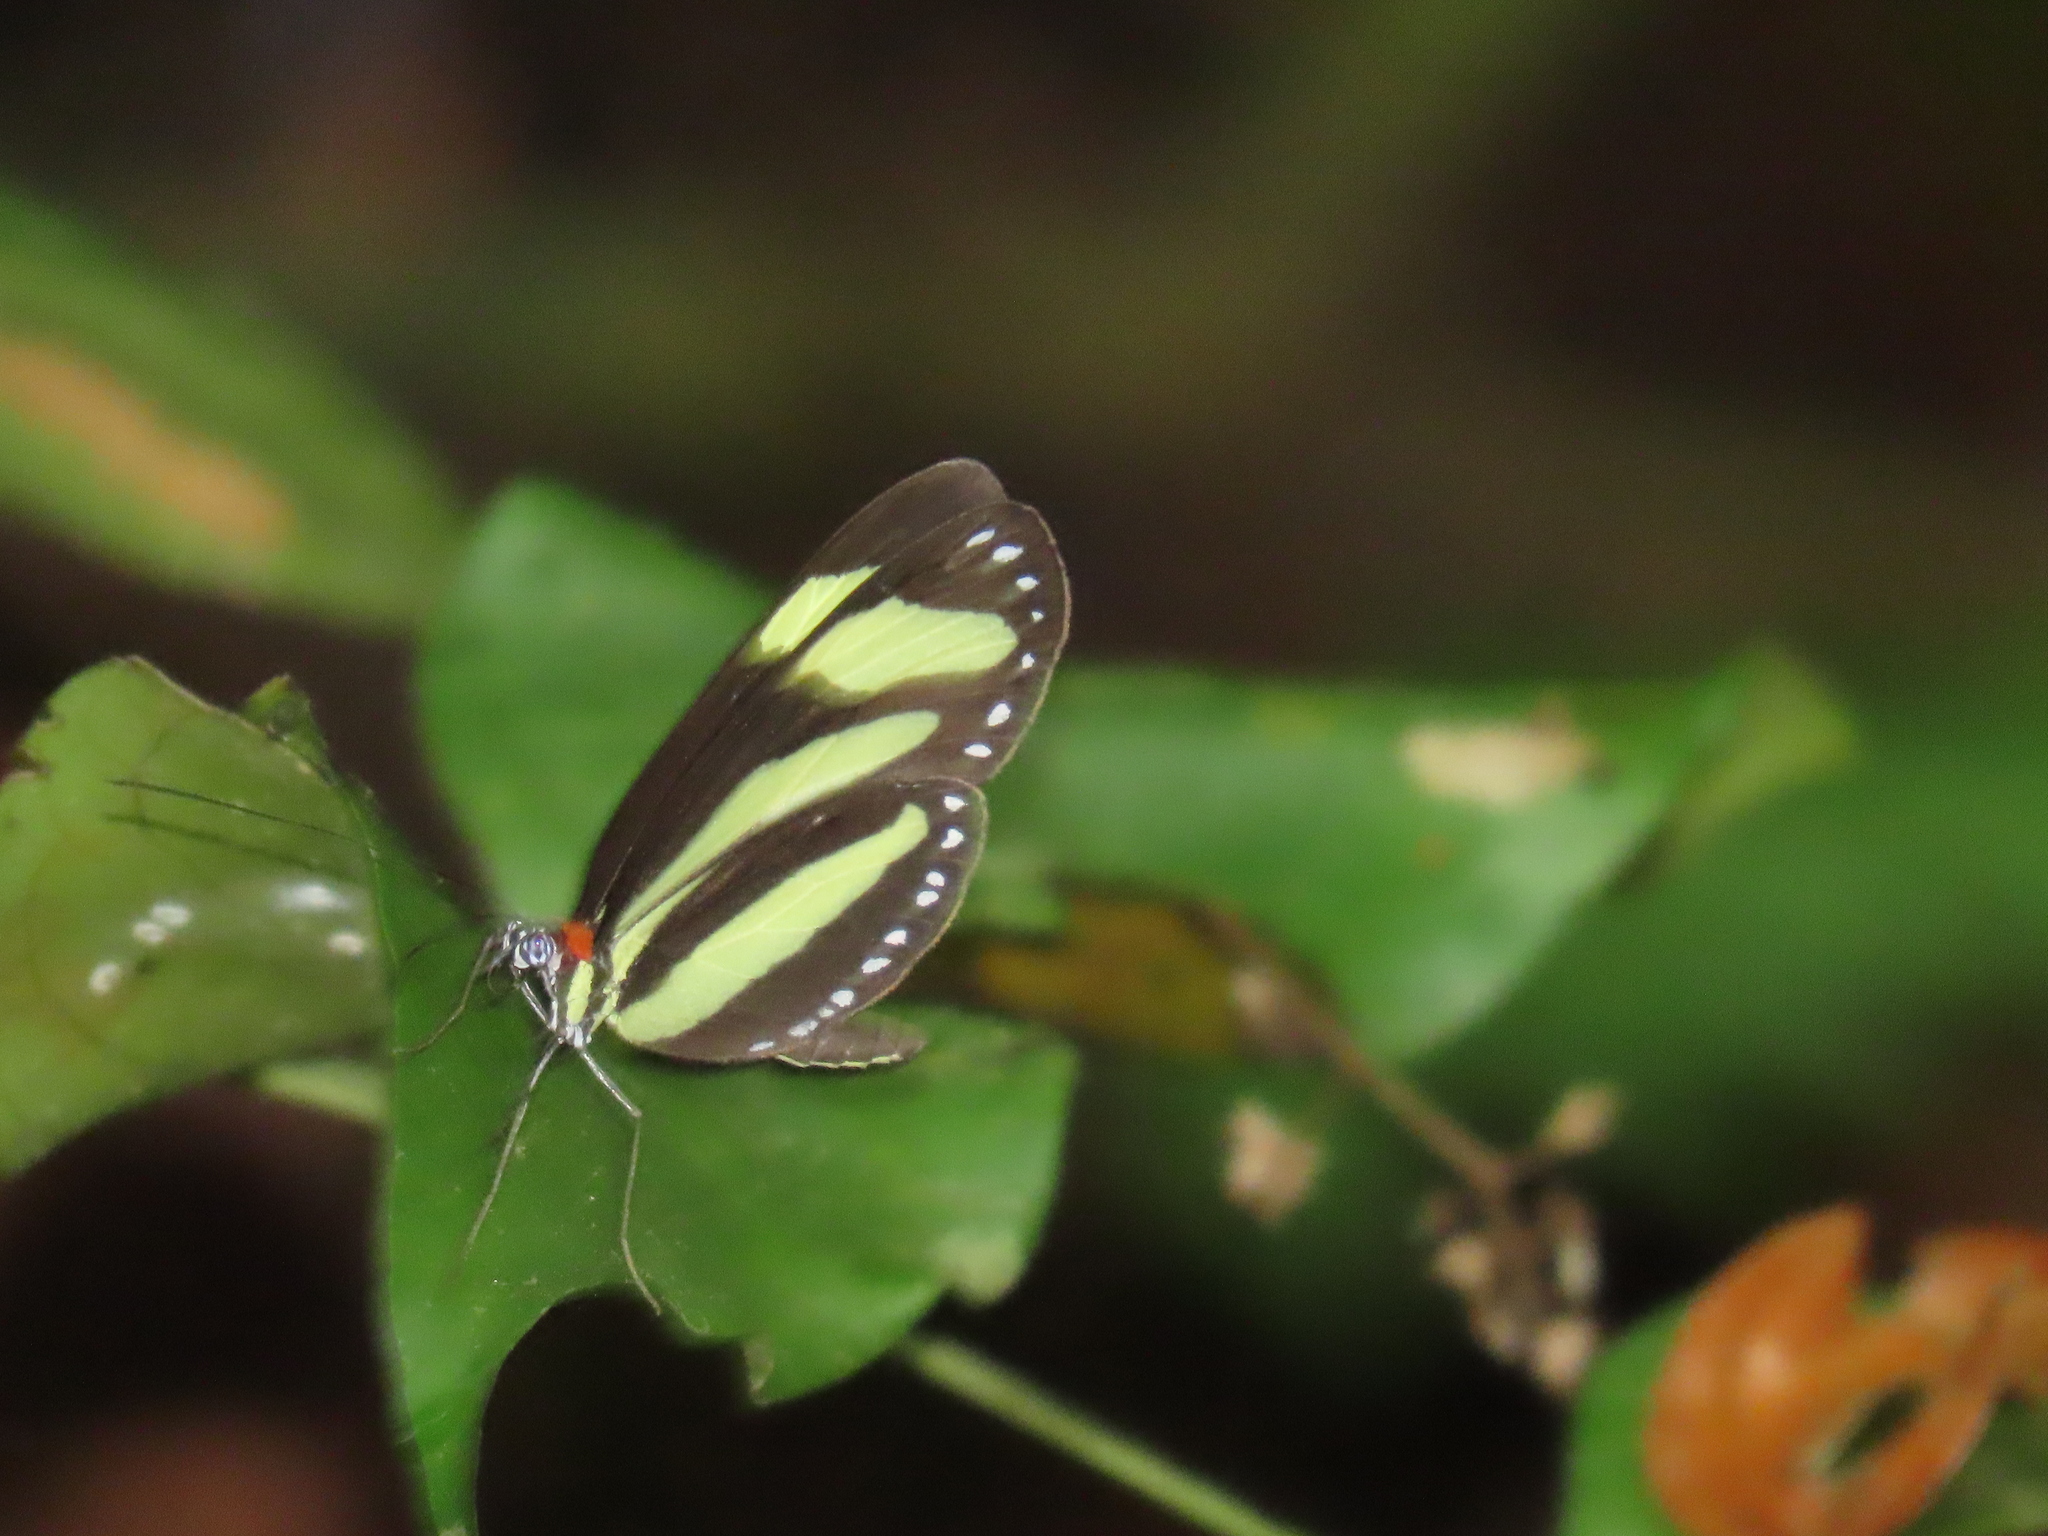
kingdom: Animalia
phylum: Arthropoda
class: Insecta
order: Lepidoptera
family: Nymphalidae
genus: Aeria
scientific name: Aeria eurimedia
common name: Banded tigerwing
